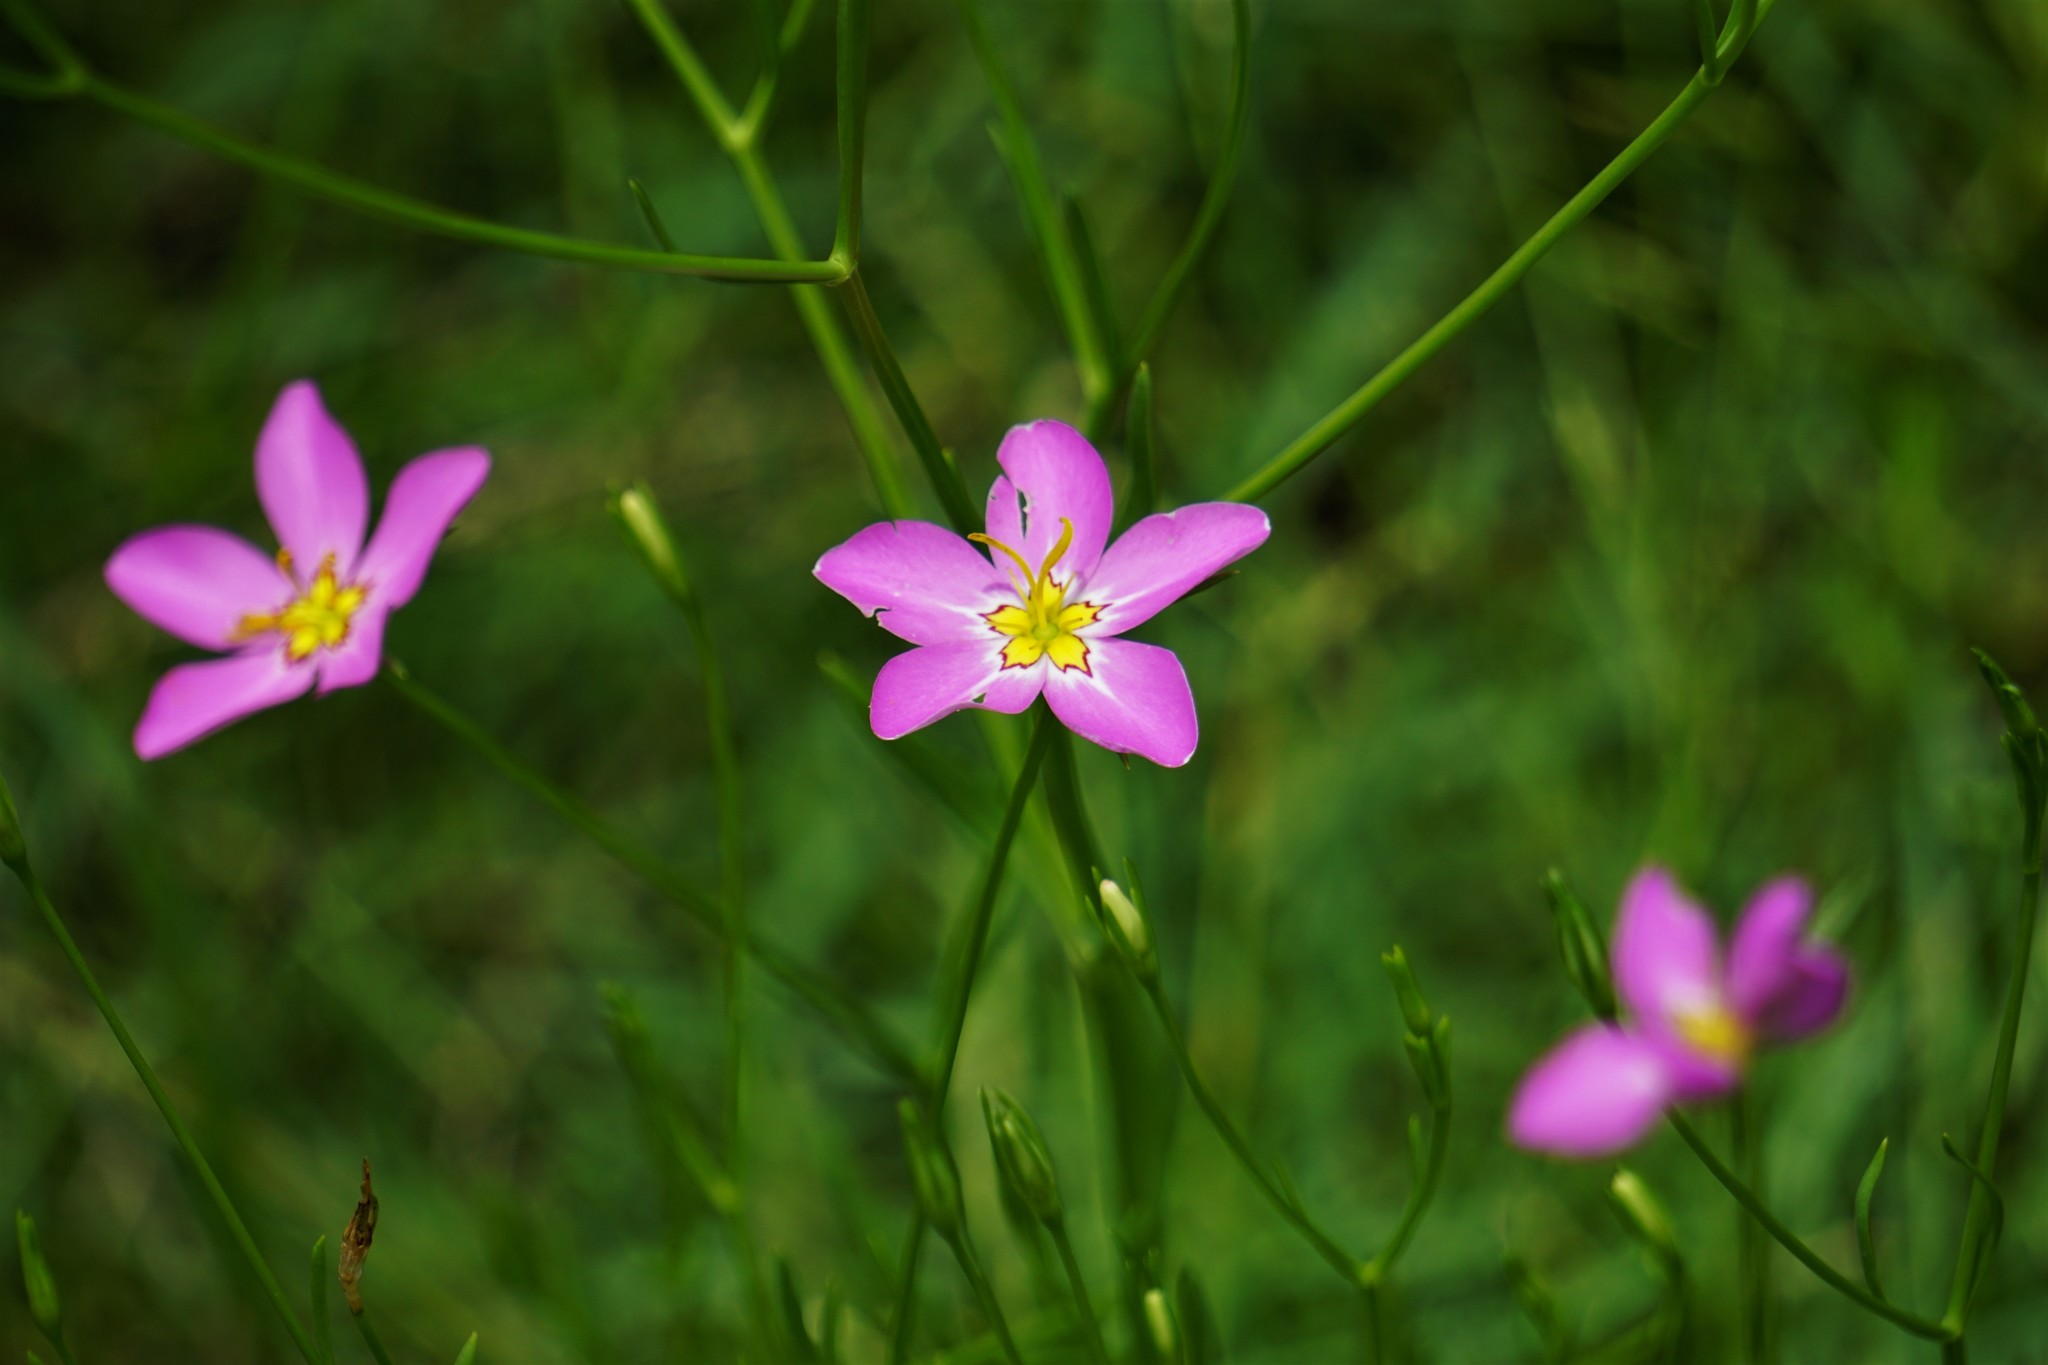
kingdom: Plantae
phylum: Tracheophyta
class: Magnoliopsida
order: Gentianales
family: Gentianaceae
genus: Sabatia
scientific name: Sabatia stellaris
